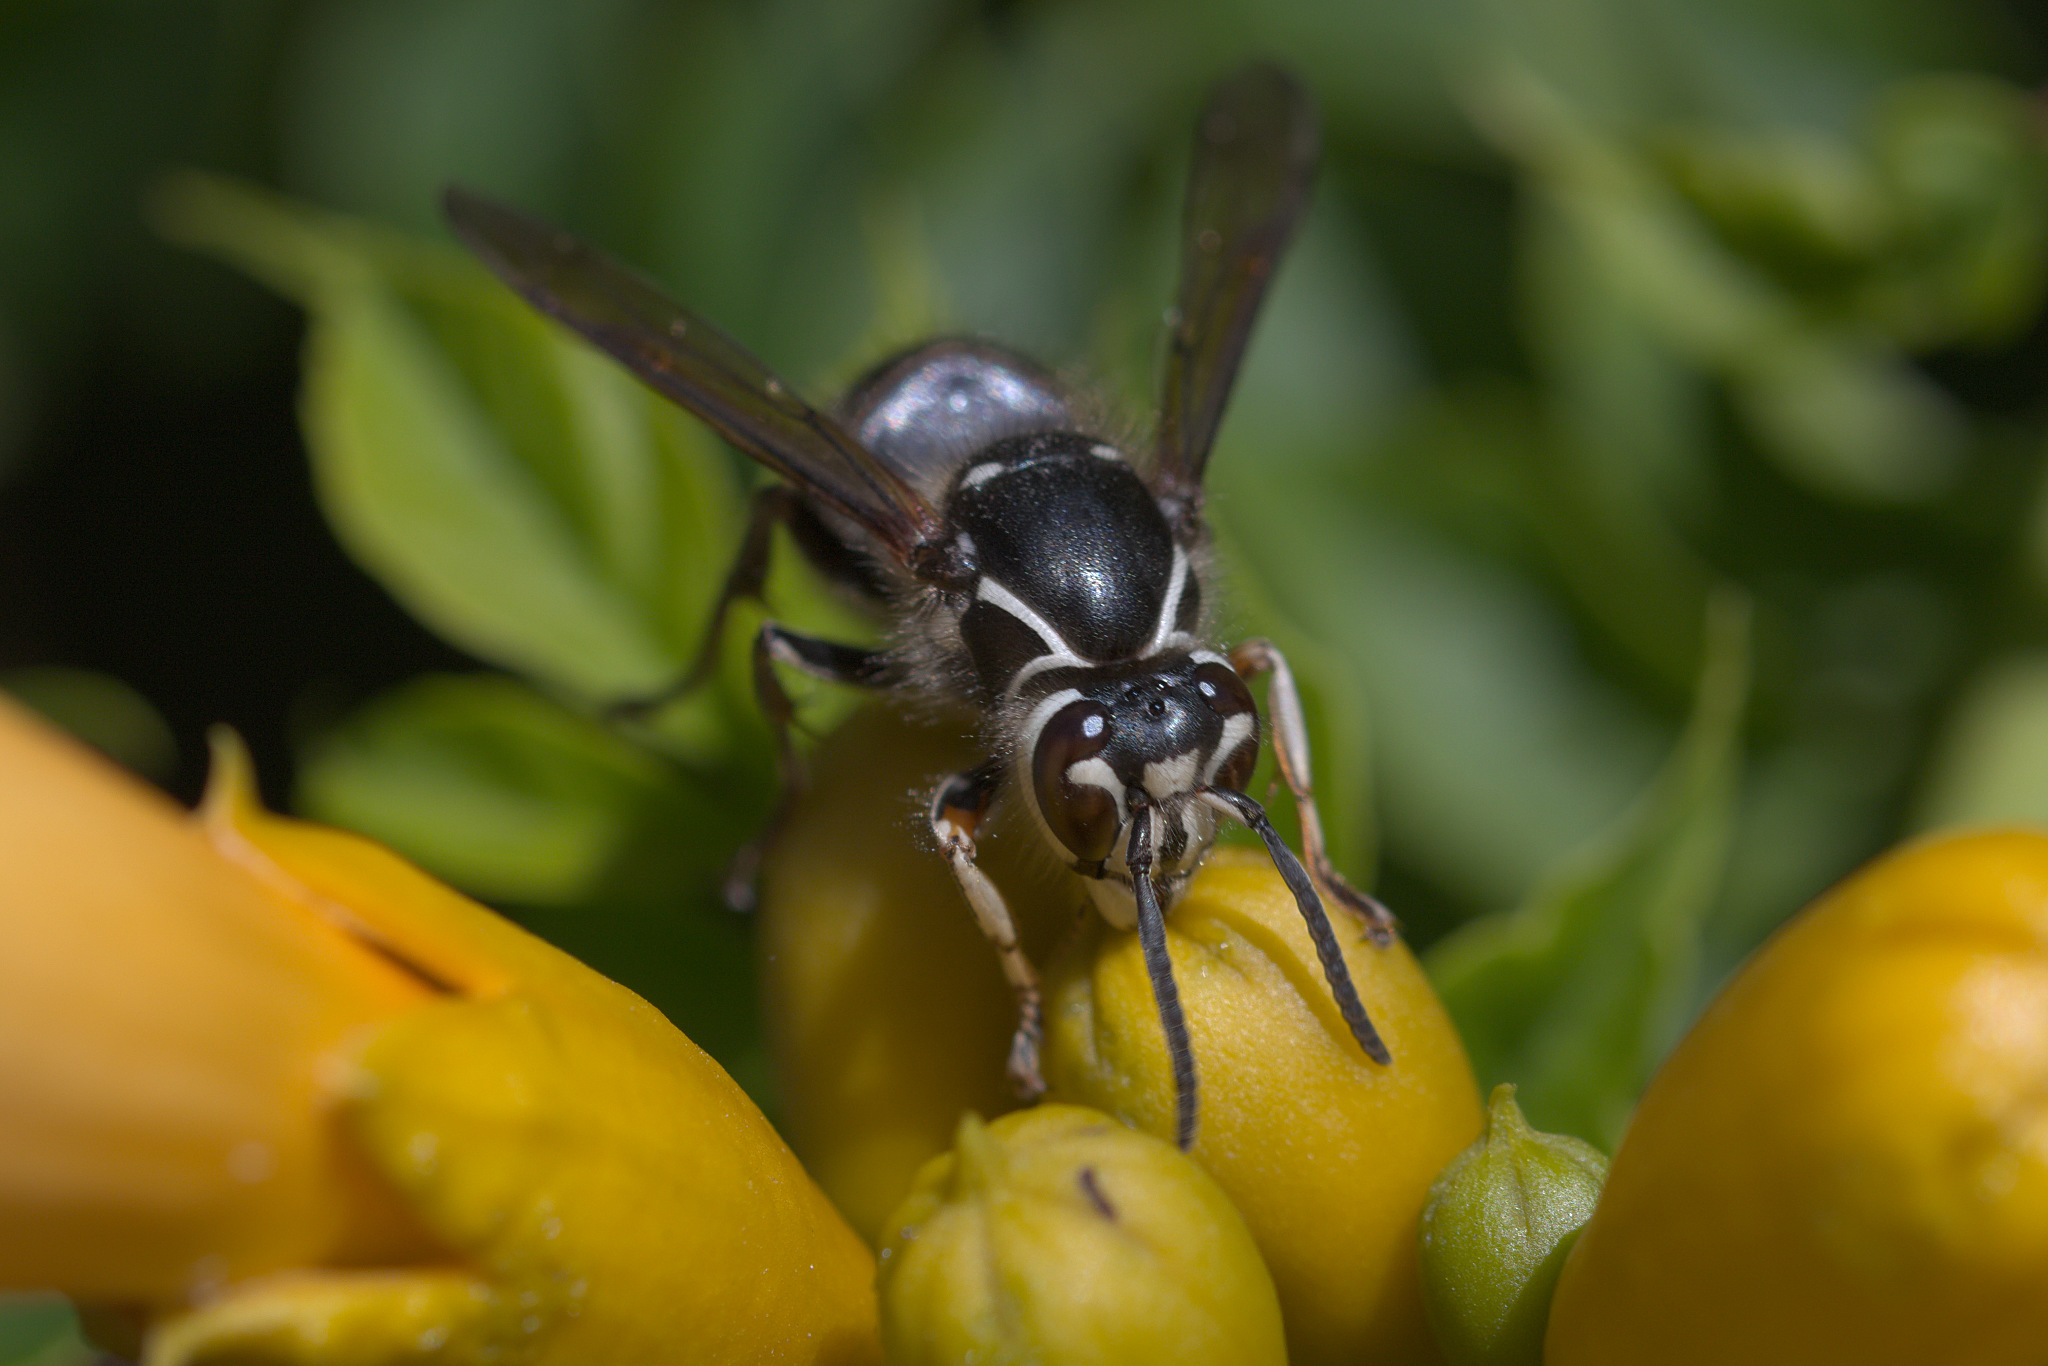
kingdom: Animalia
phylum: Arthropoda
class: Insecta
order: Hymenoptera
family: Vespidae
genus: Dolichovespula
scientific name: Dolichovespula maculata
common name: Bald-faced hornet
